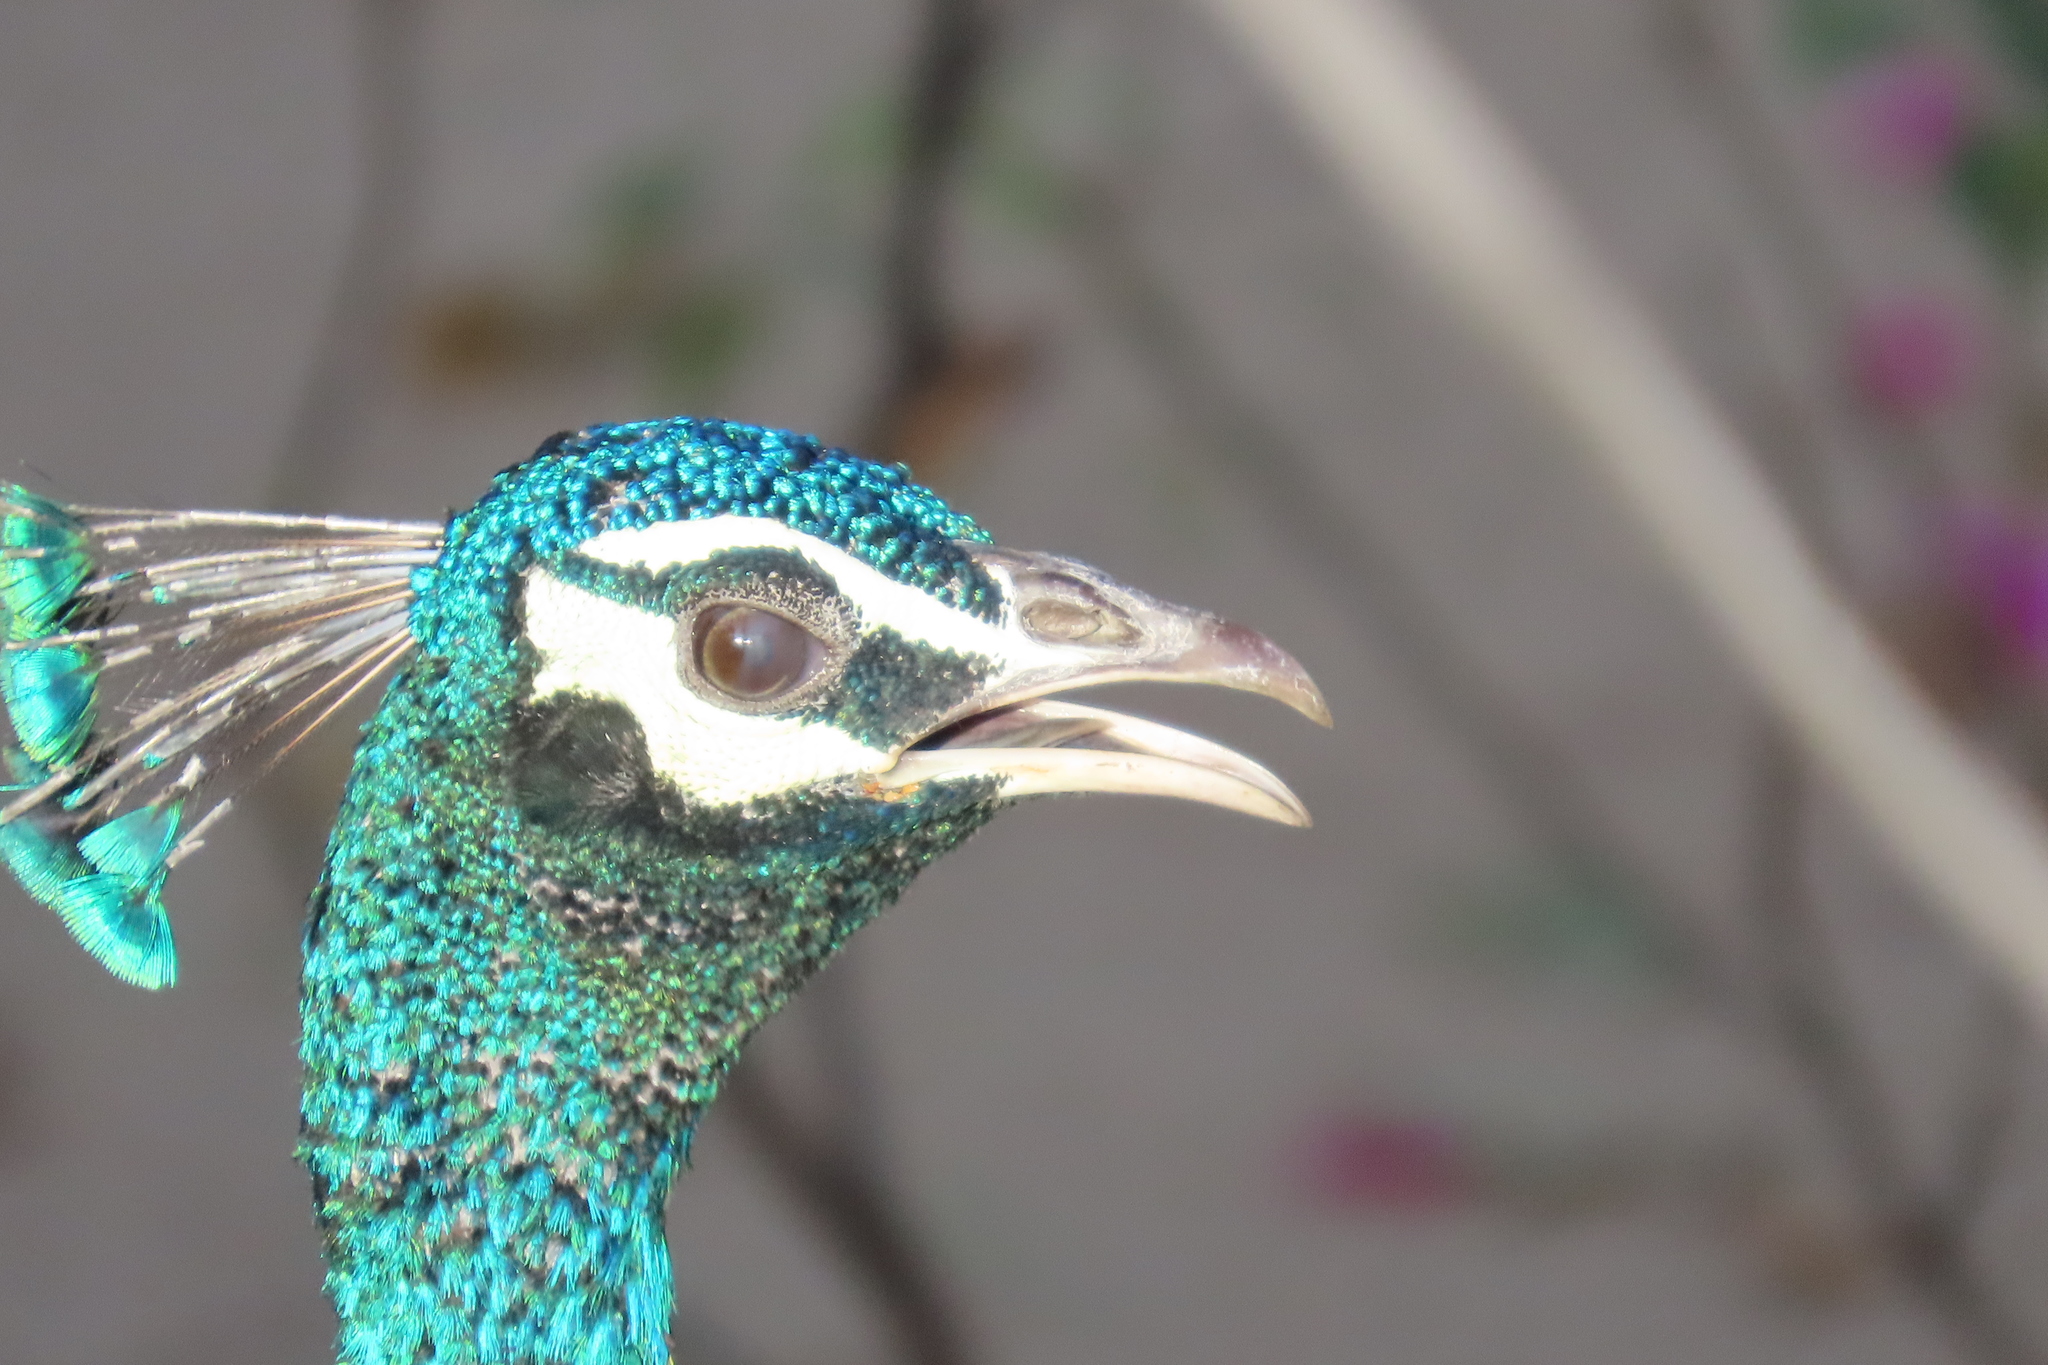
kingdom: Animalia
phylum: Chordata
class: Aves
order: Galliformes
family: Phasianidae
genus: Pavo
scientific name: Pavo cristatus
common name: Indian peafowl
